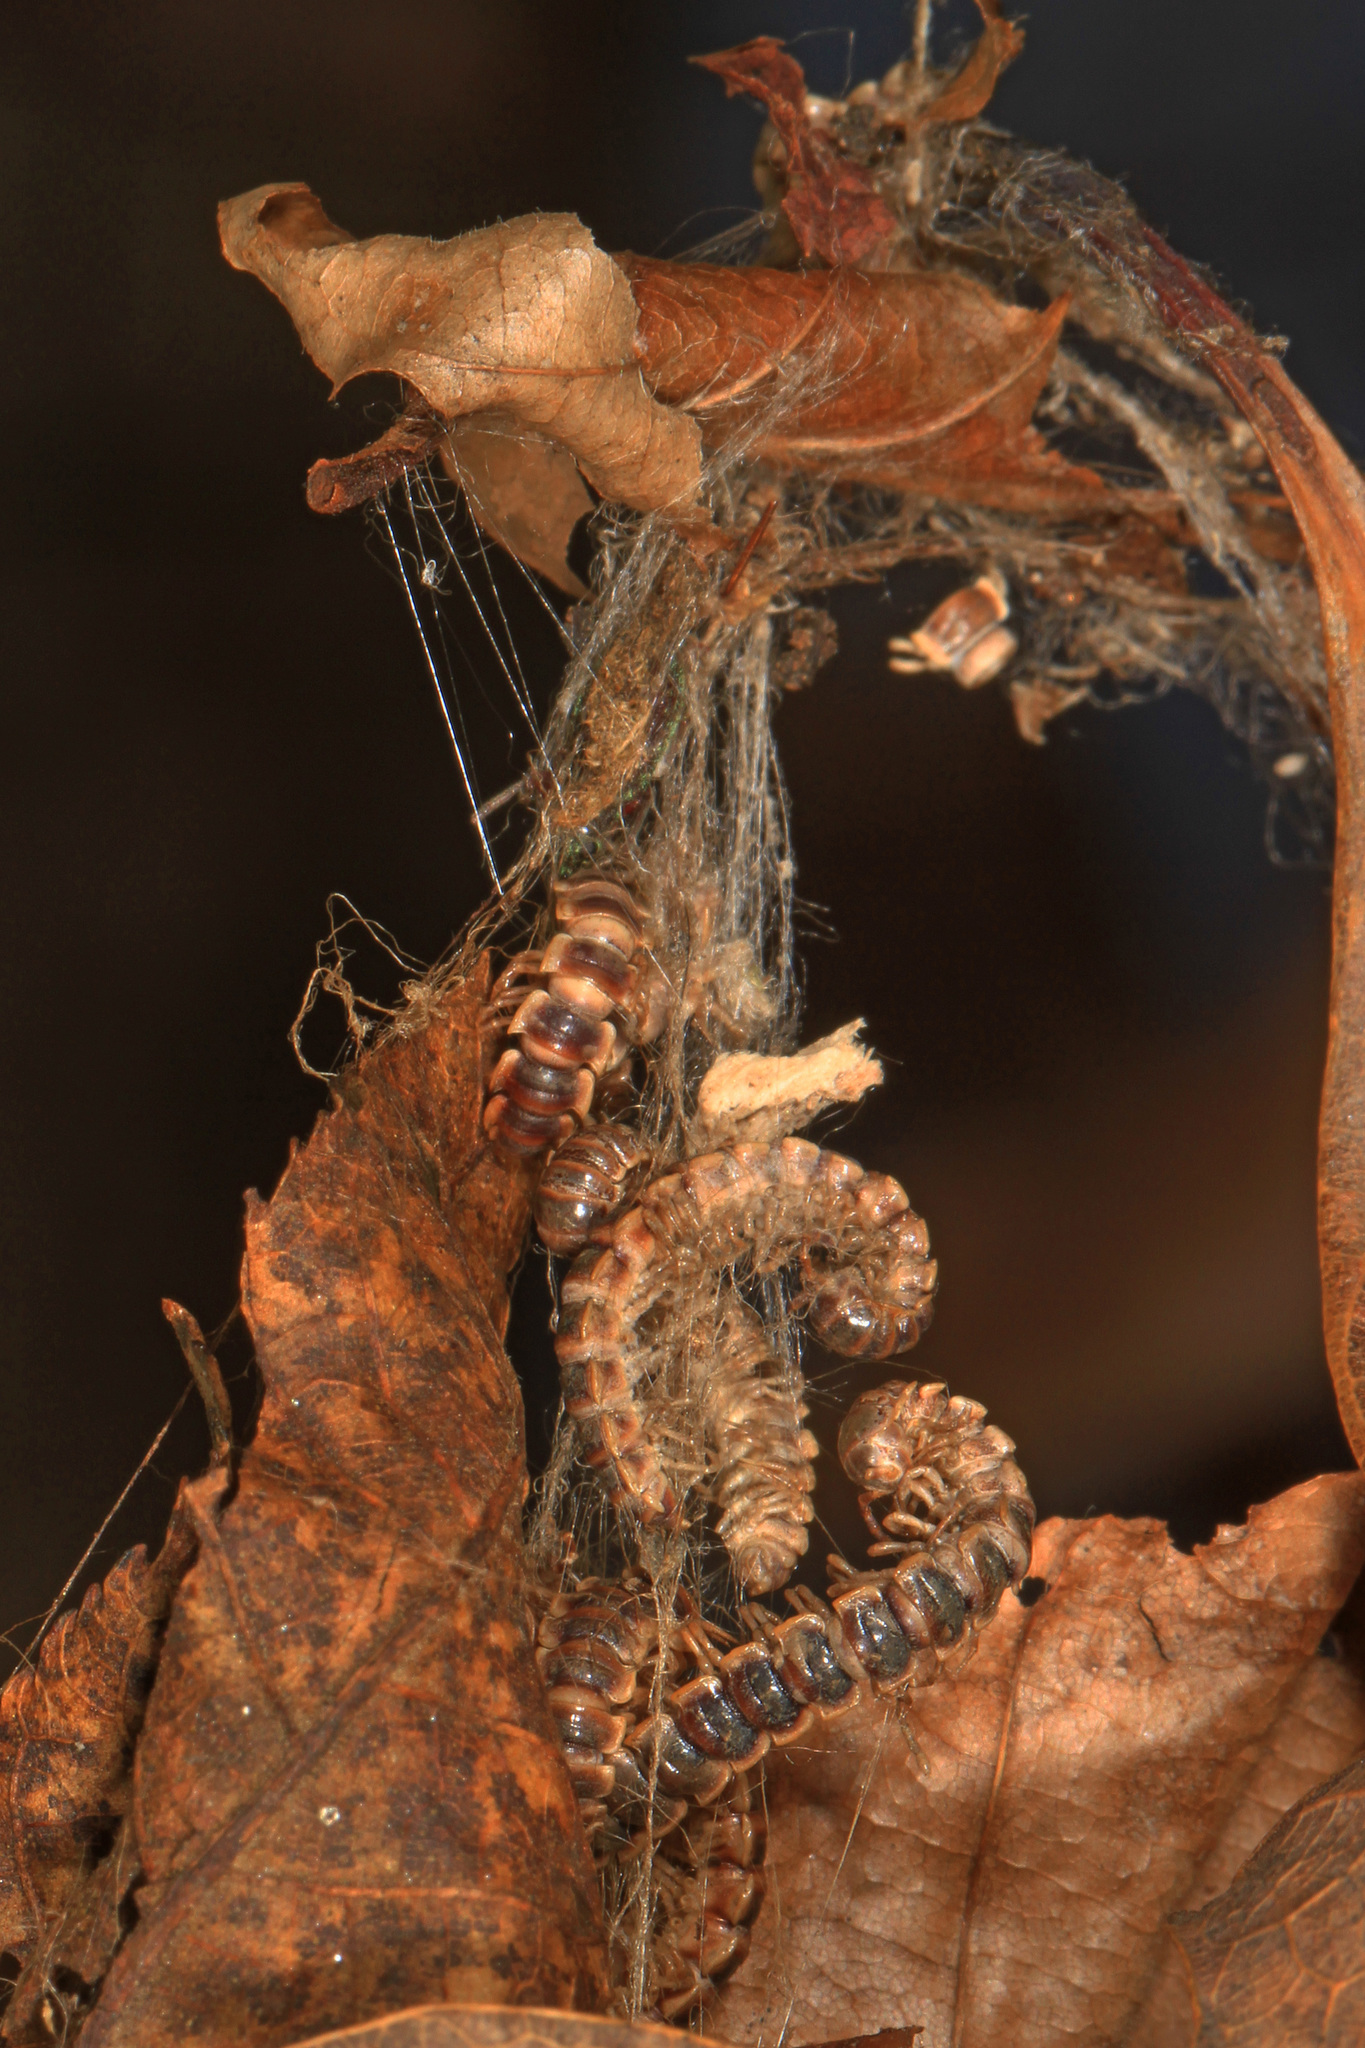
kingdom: Animalia
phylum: Arthropoda
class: Diplopoda
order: Polydesmida
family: Paradoxosomatidae
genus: Oxidus
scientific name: Oxidus gracilis
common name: Greenhouse millipede
